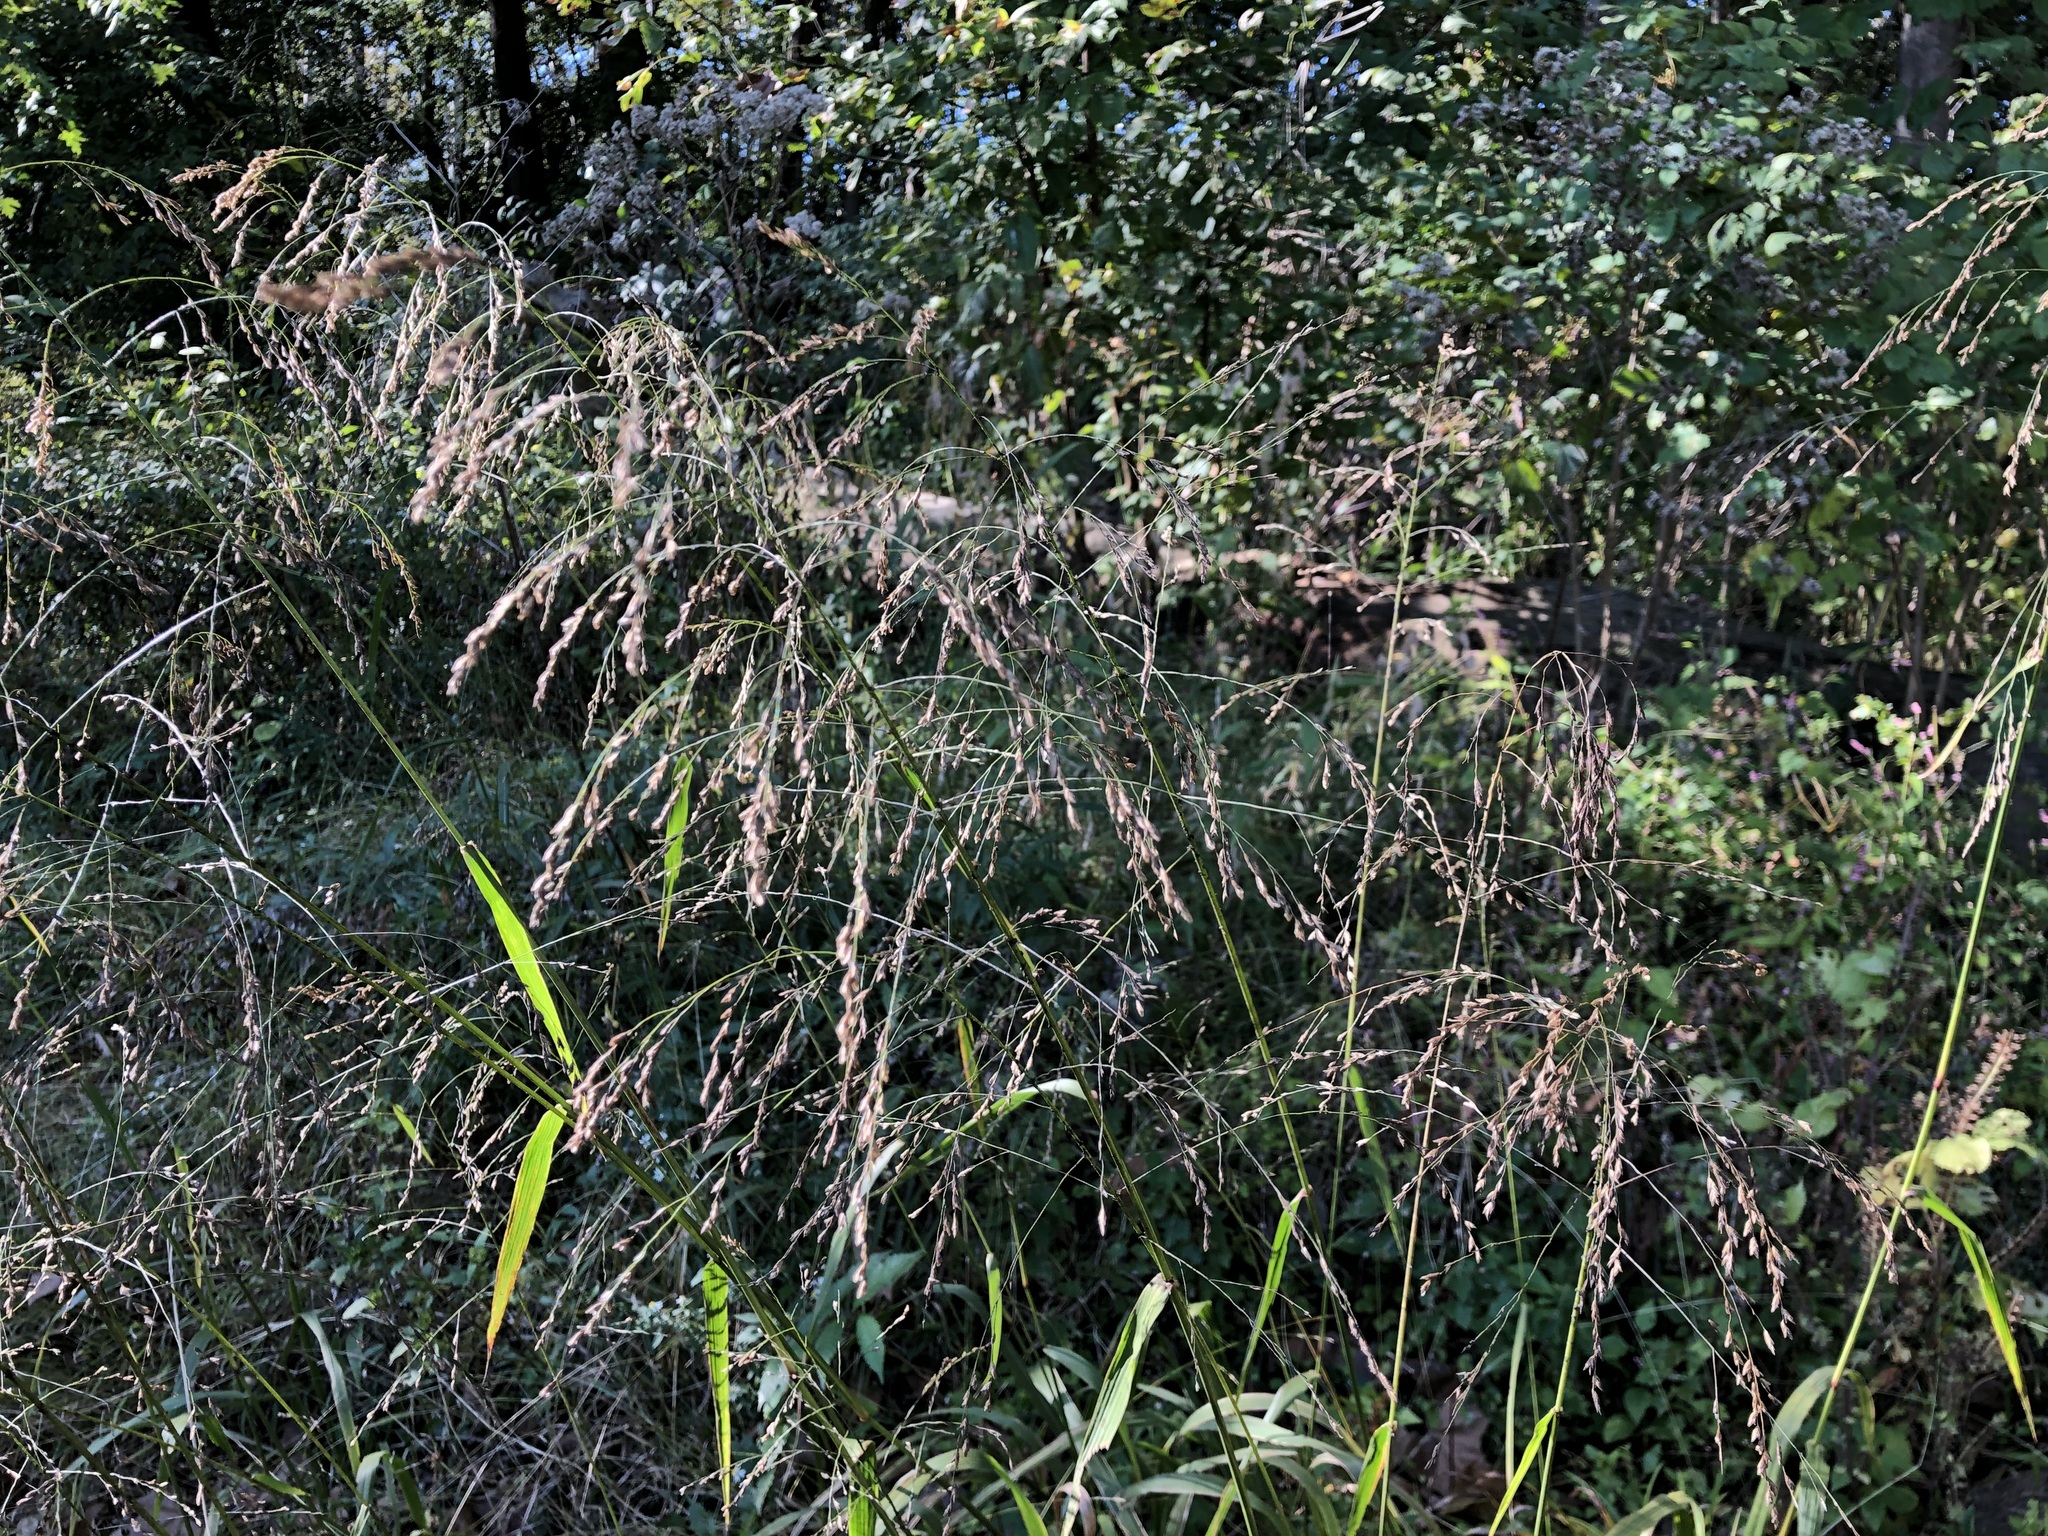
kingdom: Plantae
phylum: Tracheophyta
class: Liliopsida
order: Poales
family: Poaceae
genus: Tridens
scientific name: Tridens flavus
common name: Purpletop
